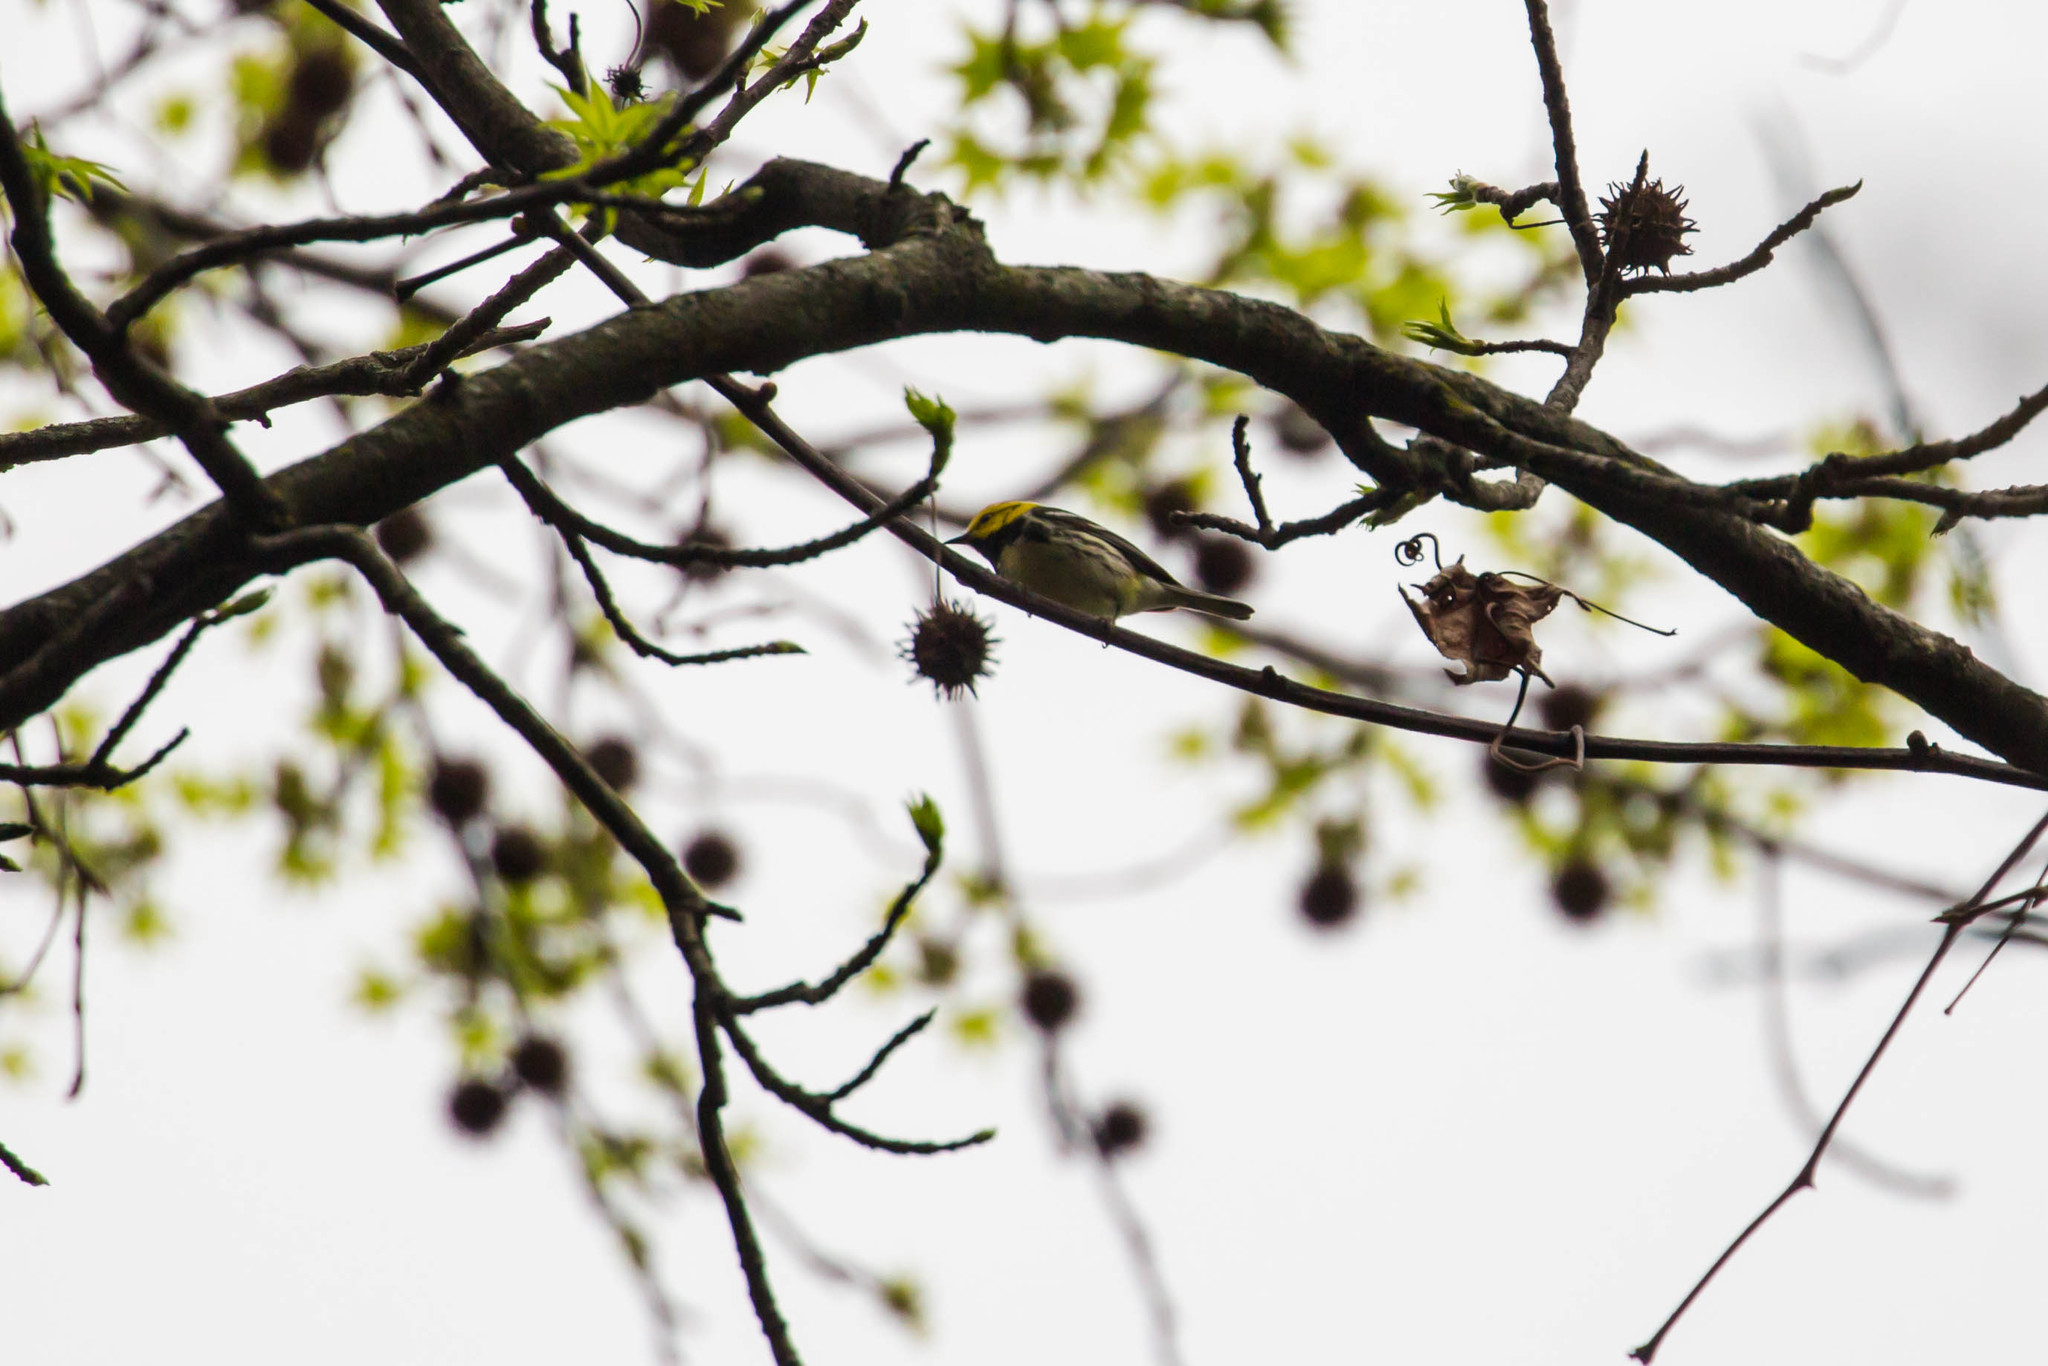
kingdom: Animalia
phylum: Chordata
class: Aves
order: Passeriformes
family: Parulidae
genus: Setophaga
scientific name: Setophaga virens
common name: Black-throated green warbler
